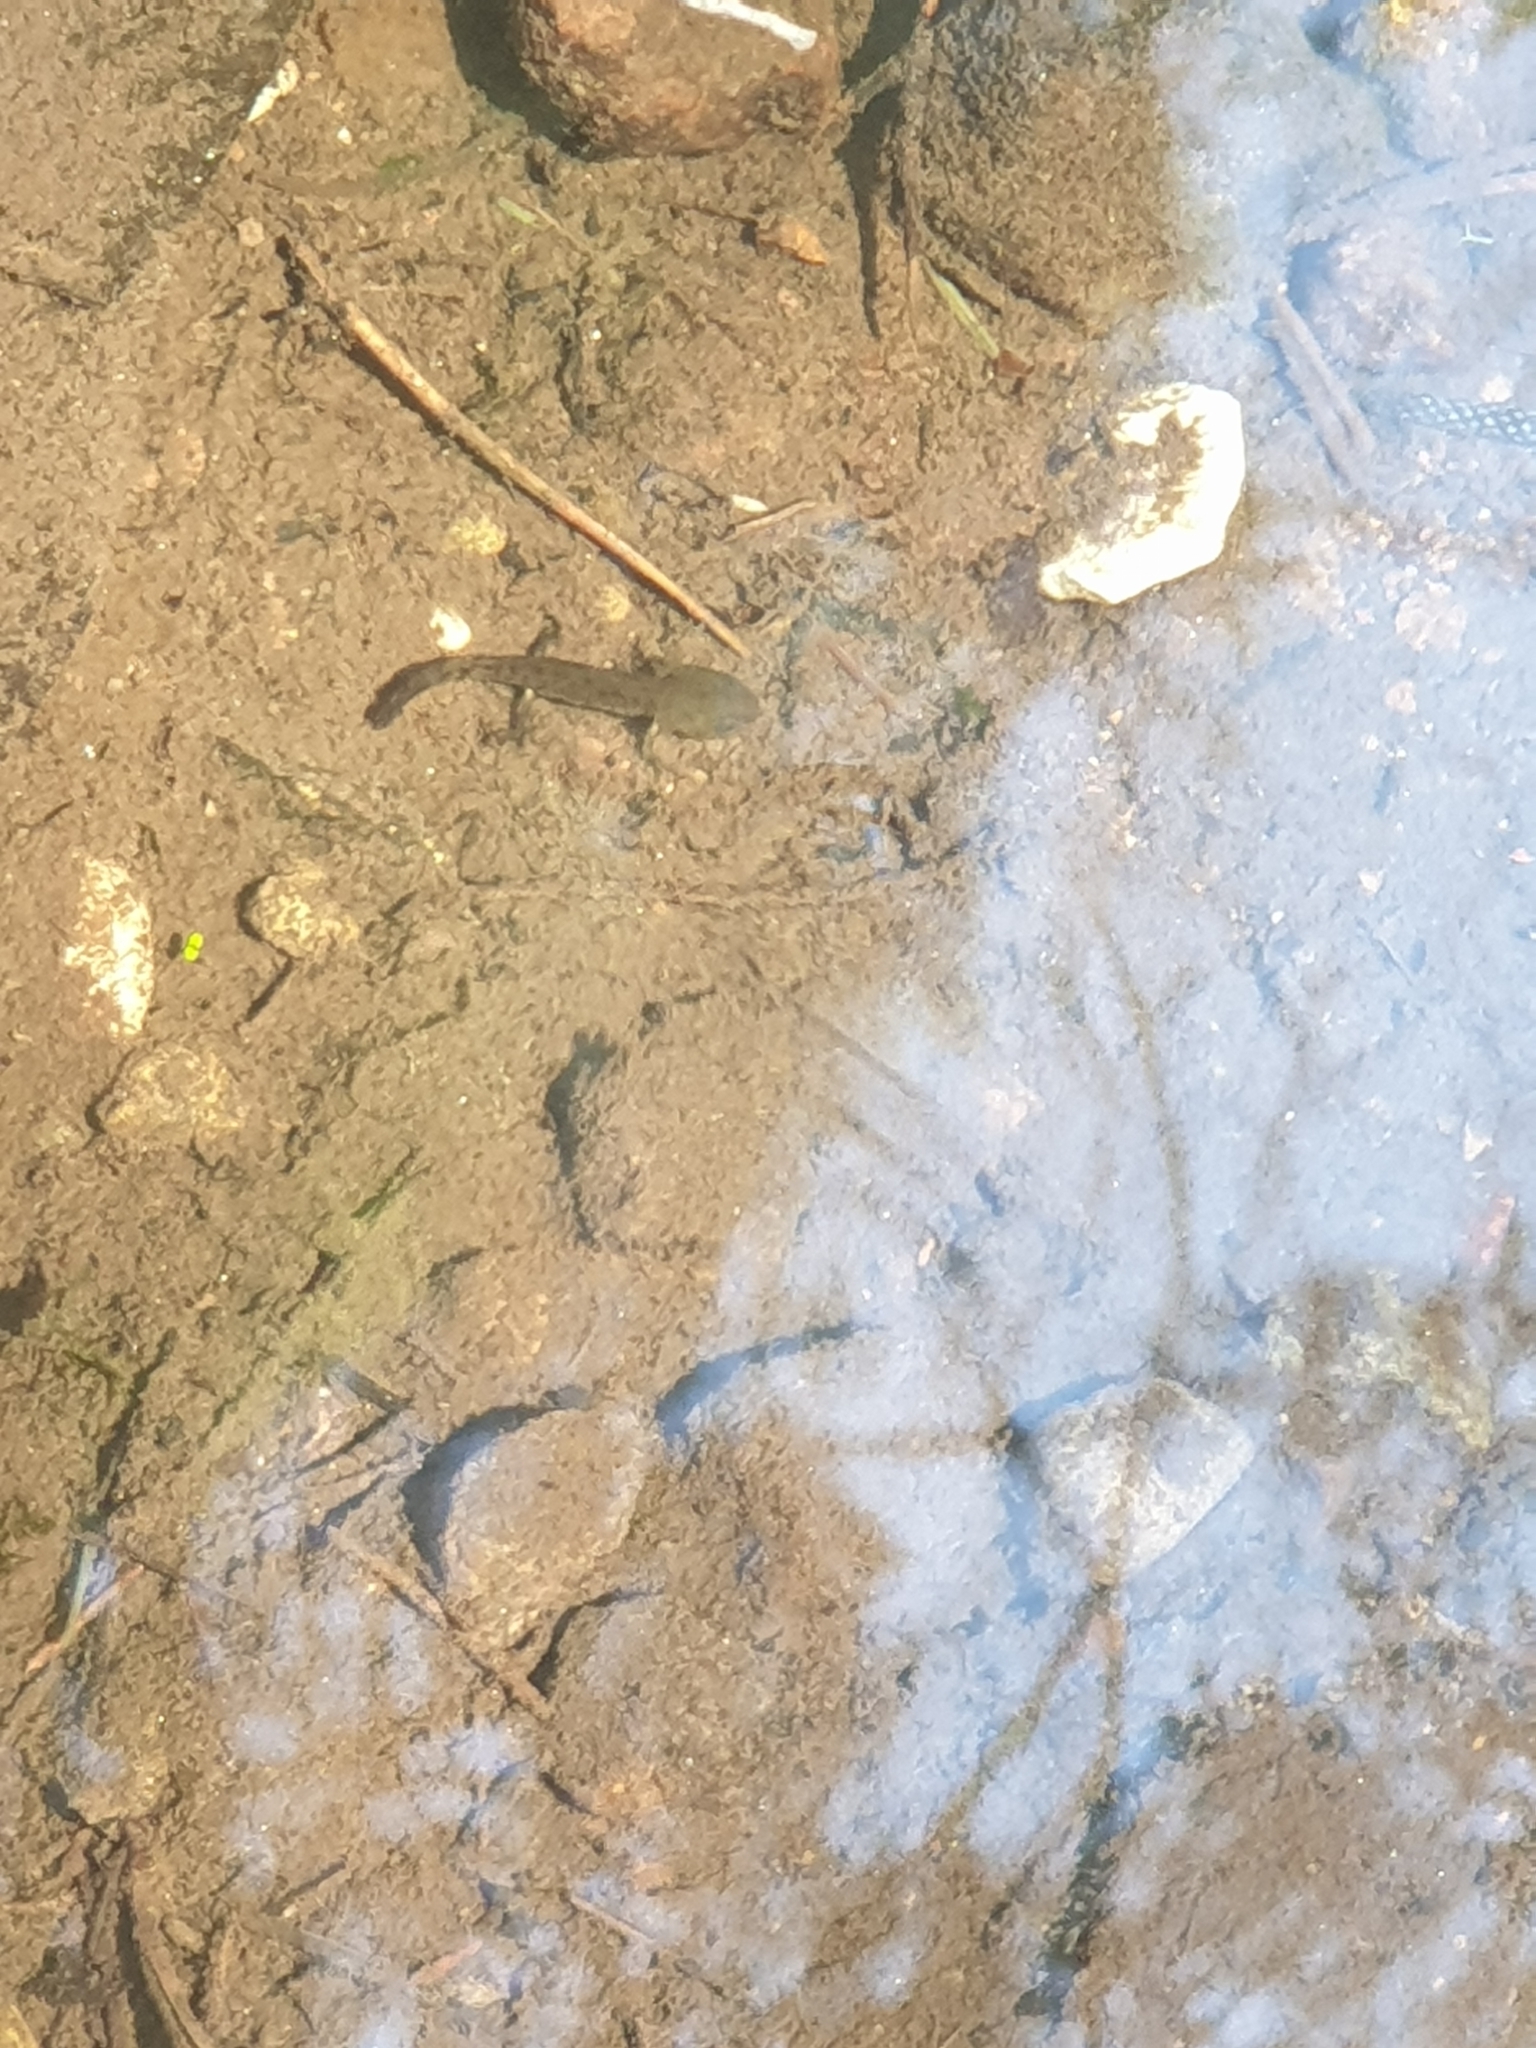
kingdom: Animalia
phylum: Chordata
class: Amphibia
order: Caudata
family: Salamandridae
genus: Salamandra
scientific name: Salamandra salamandra
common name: Fire salamander
